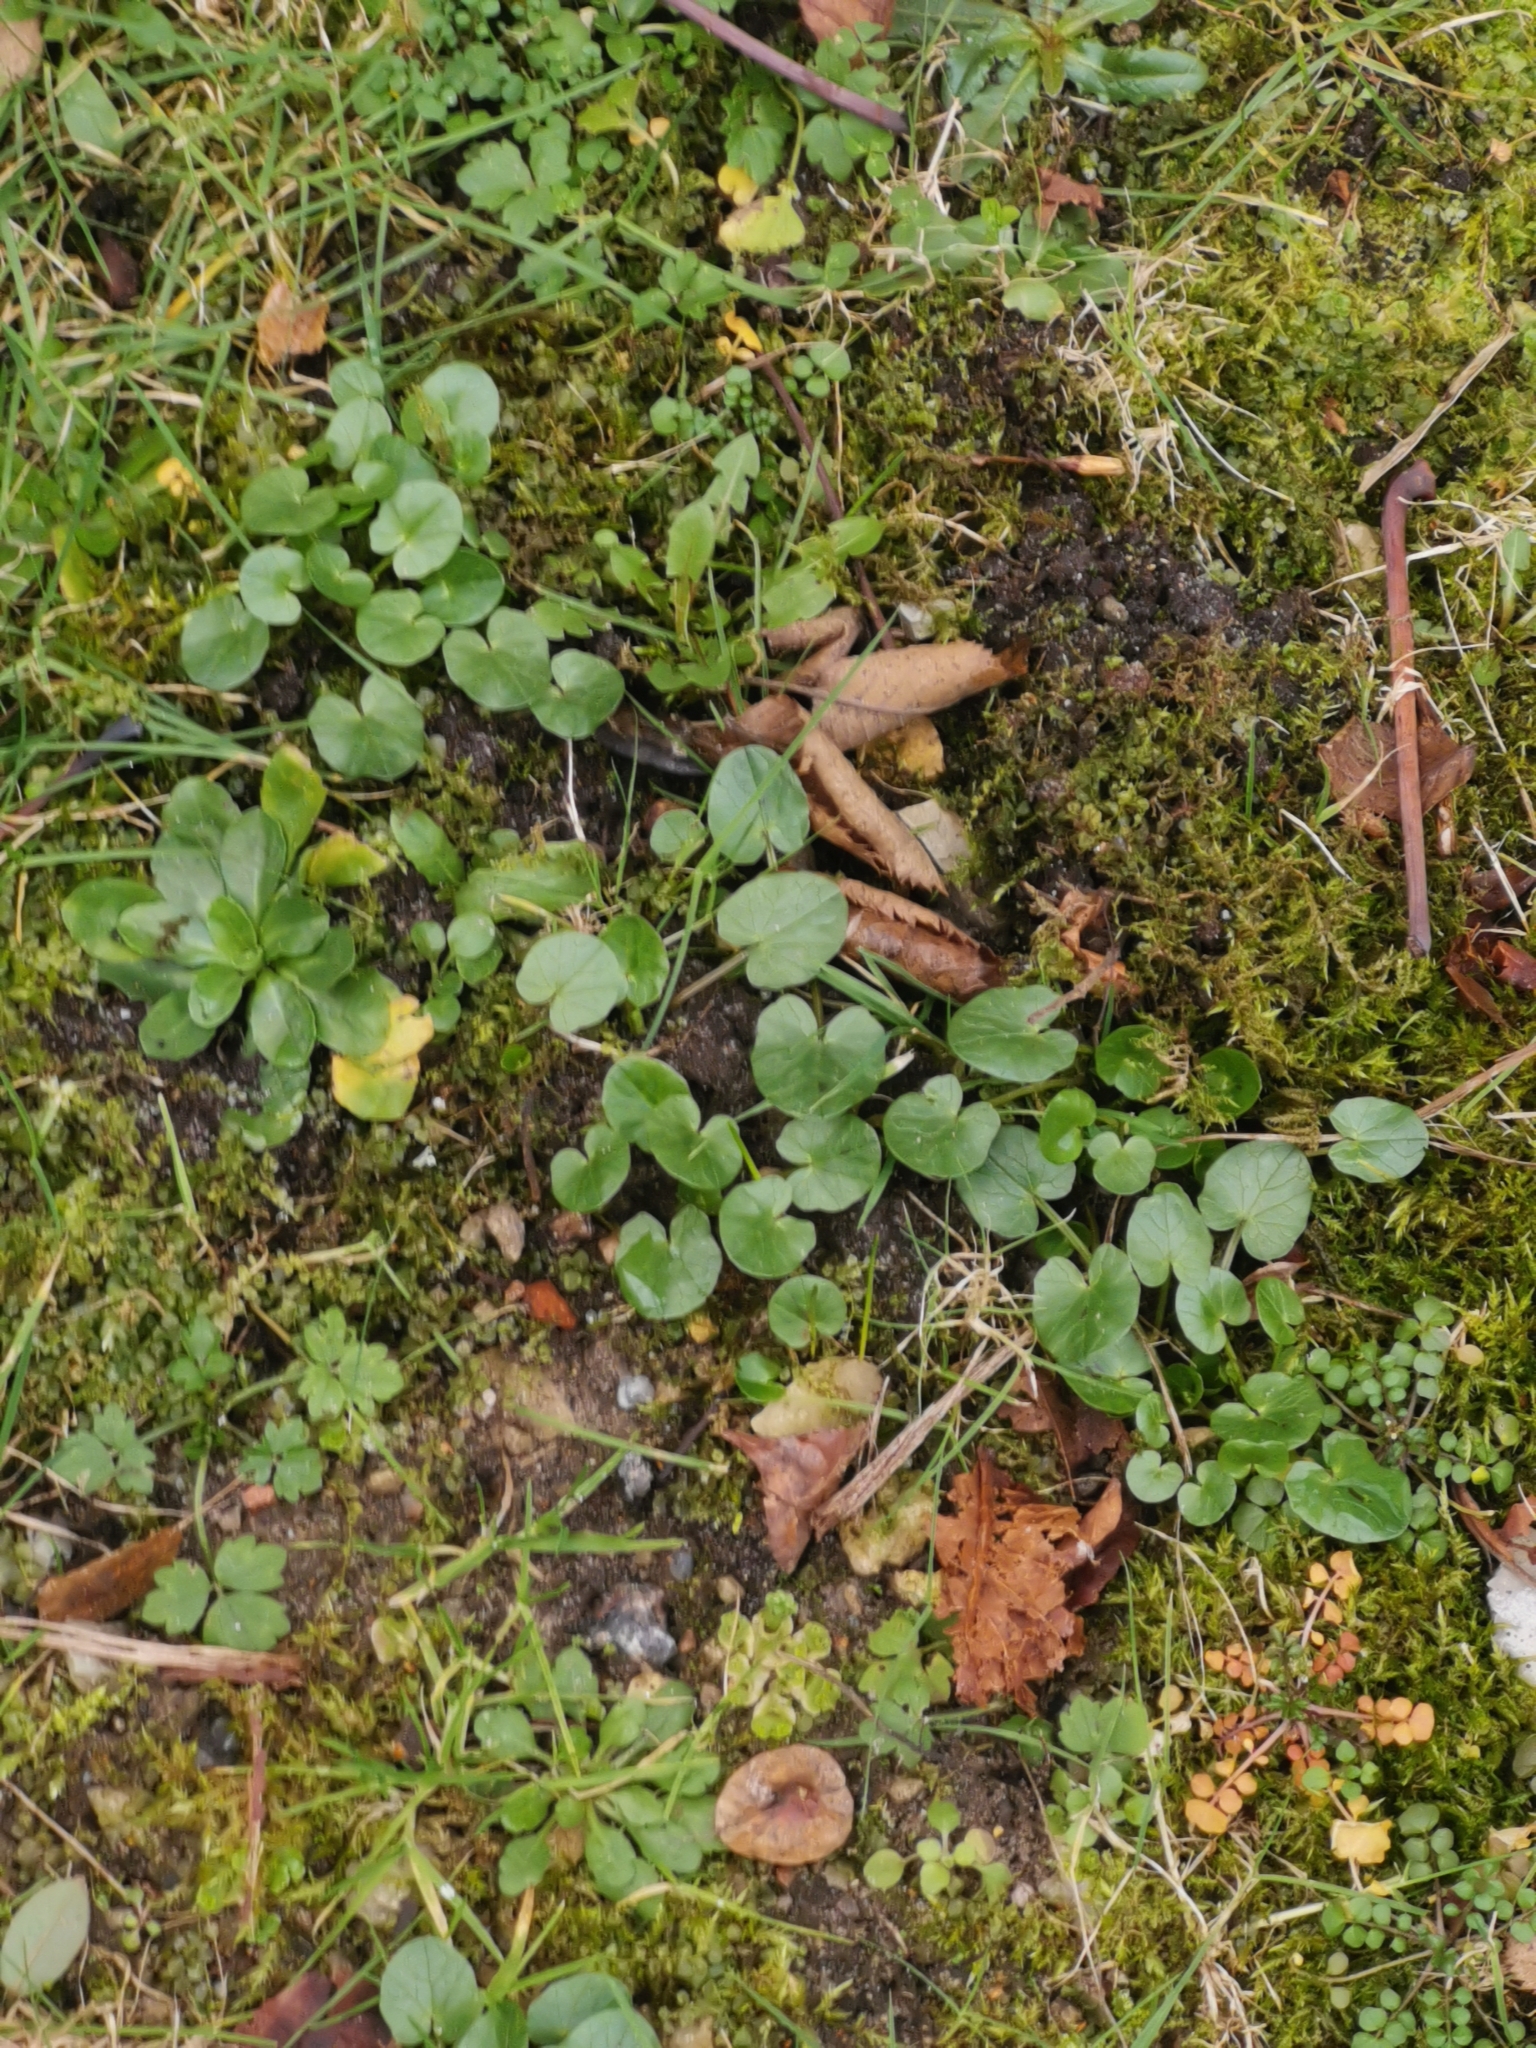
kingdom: Plantae
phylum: Tracheophyta
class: Magnoliopsida
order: Ranunculales
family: Ranunculaceae
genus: Ficaria
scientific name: Ficaria verna
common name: Lesser celandine
